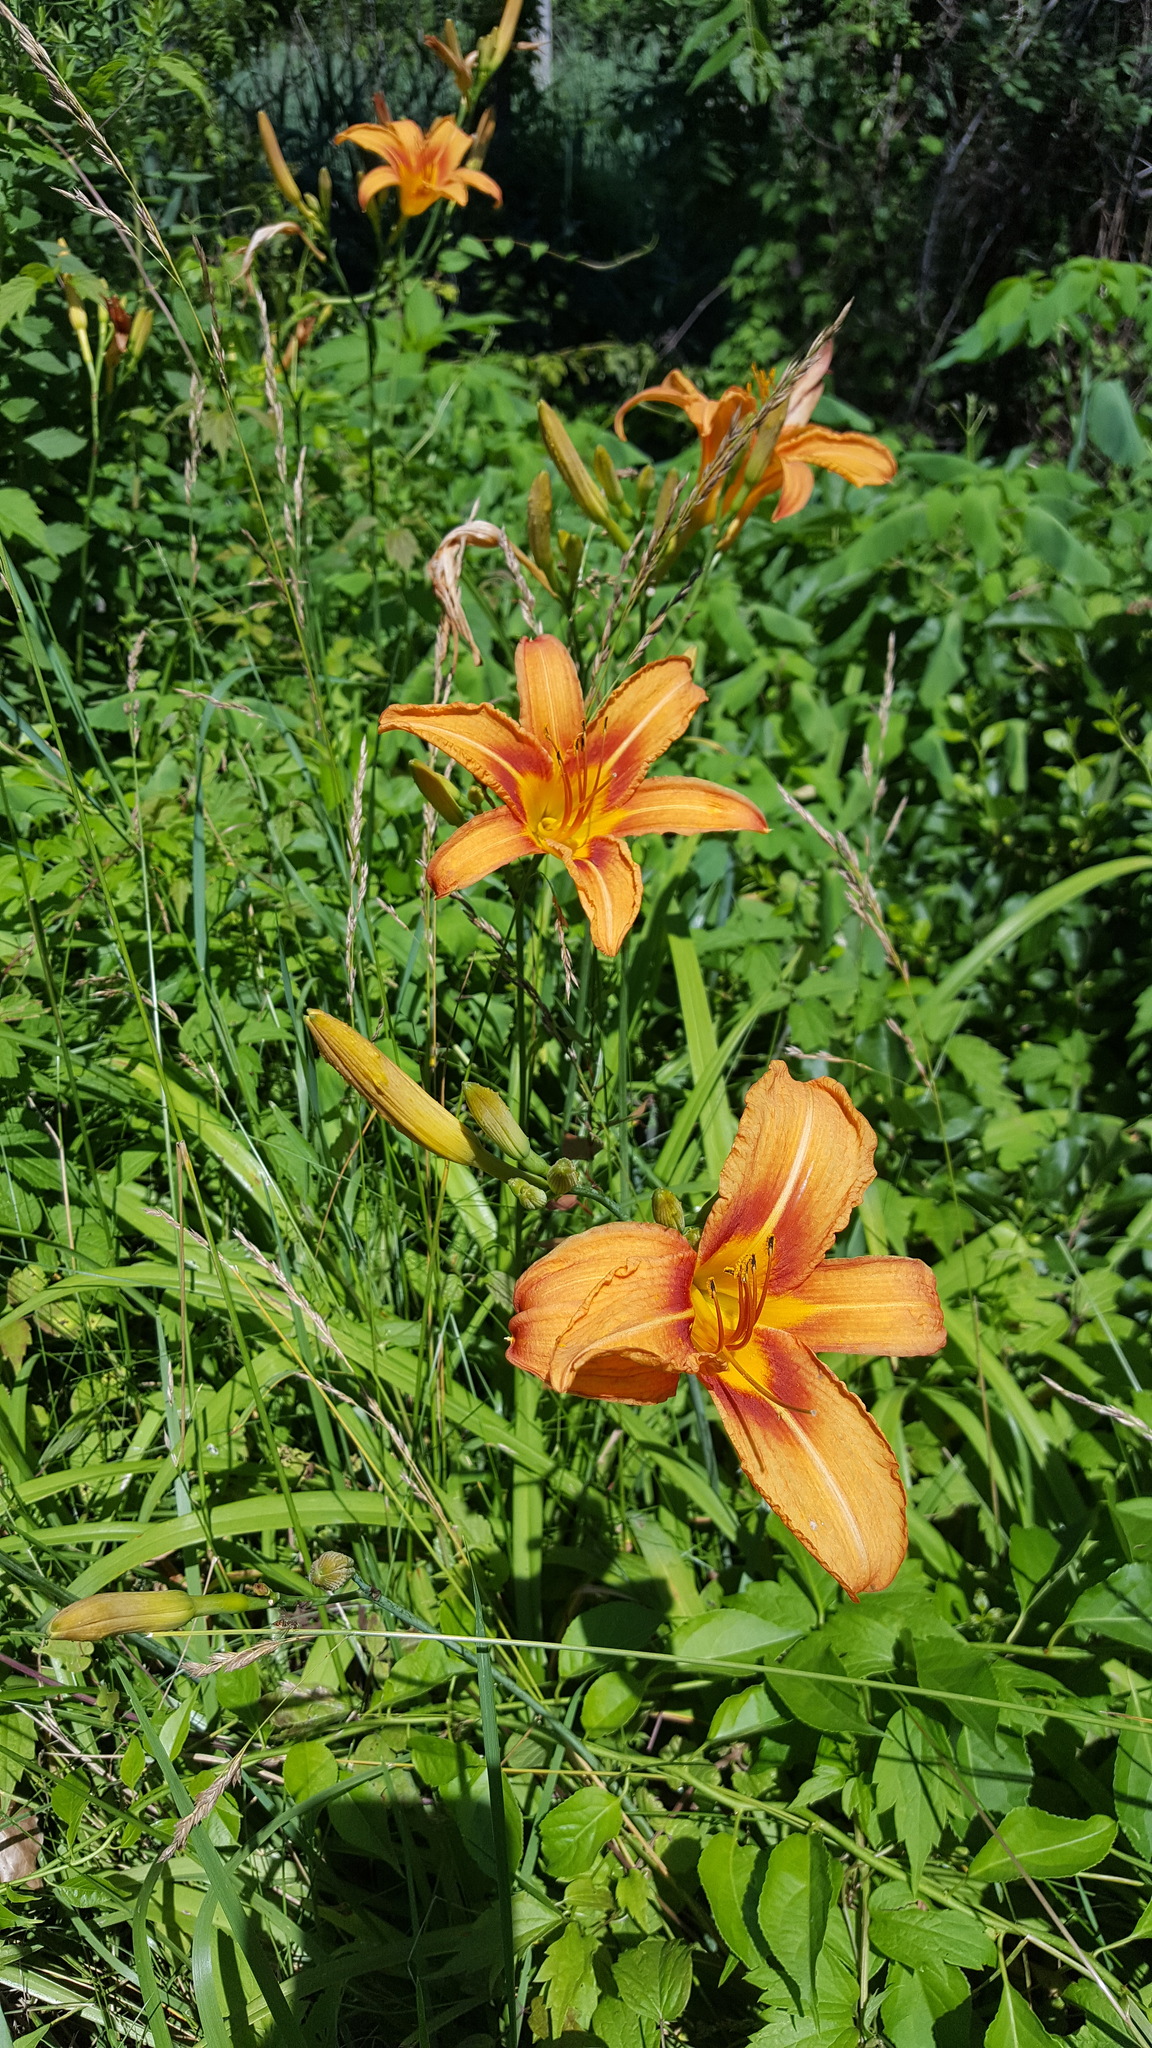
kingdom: Plantae
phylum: Tracheophyta
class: Liliopsida
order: Asparagales
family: Asphodelaceae
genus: Hemerocallis
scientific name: Hemerocallis fulva
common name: Orange day-lily
